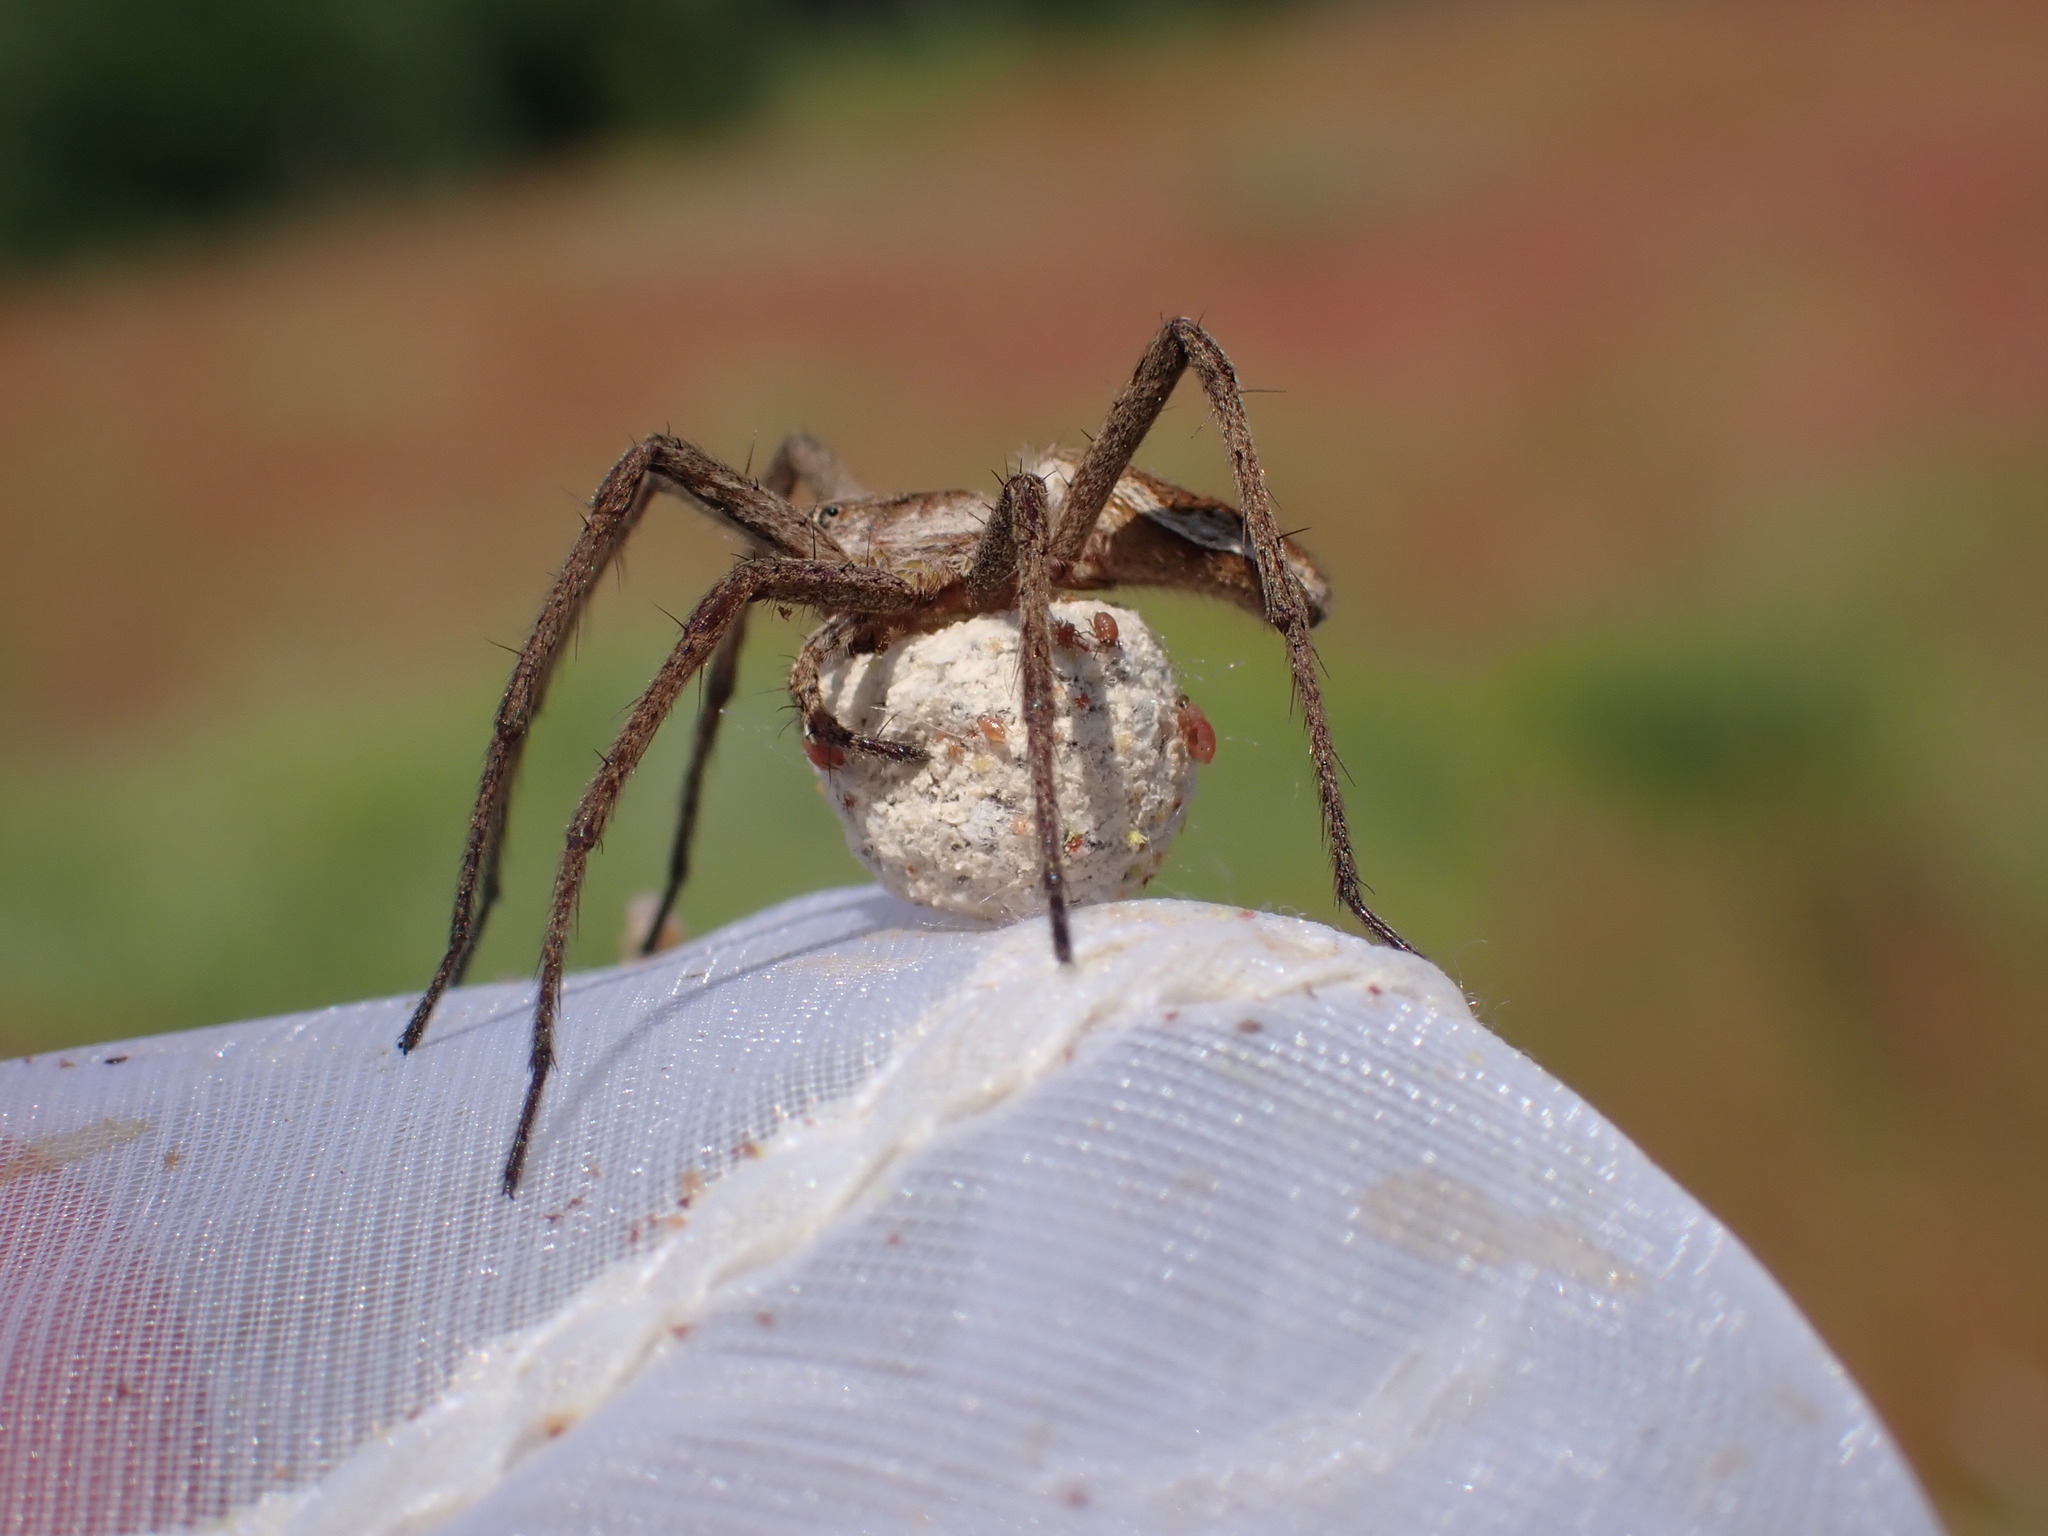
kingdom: Animalia
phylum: Arthropoda
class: Arachnida
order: Araneae
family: Pisauridae
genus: Pisaura
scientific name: Pisaura mirabilis
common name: Tent spider
